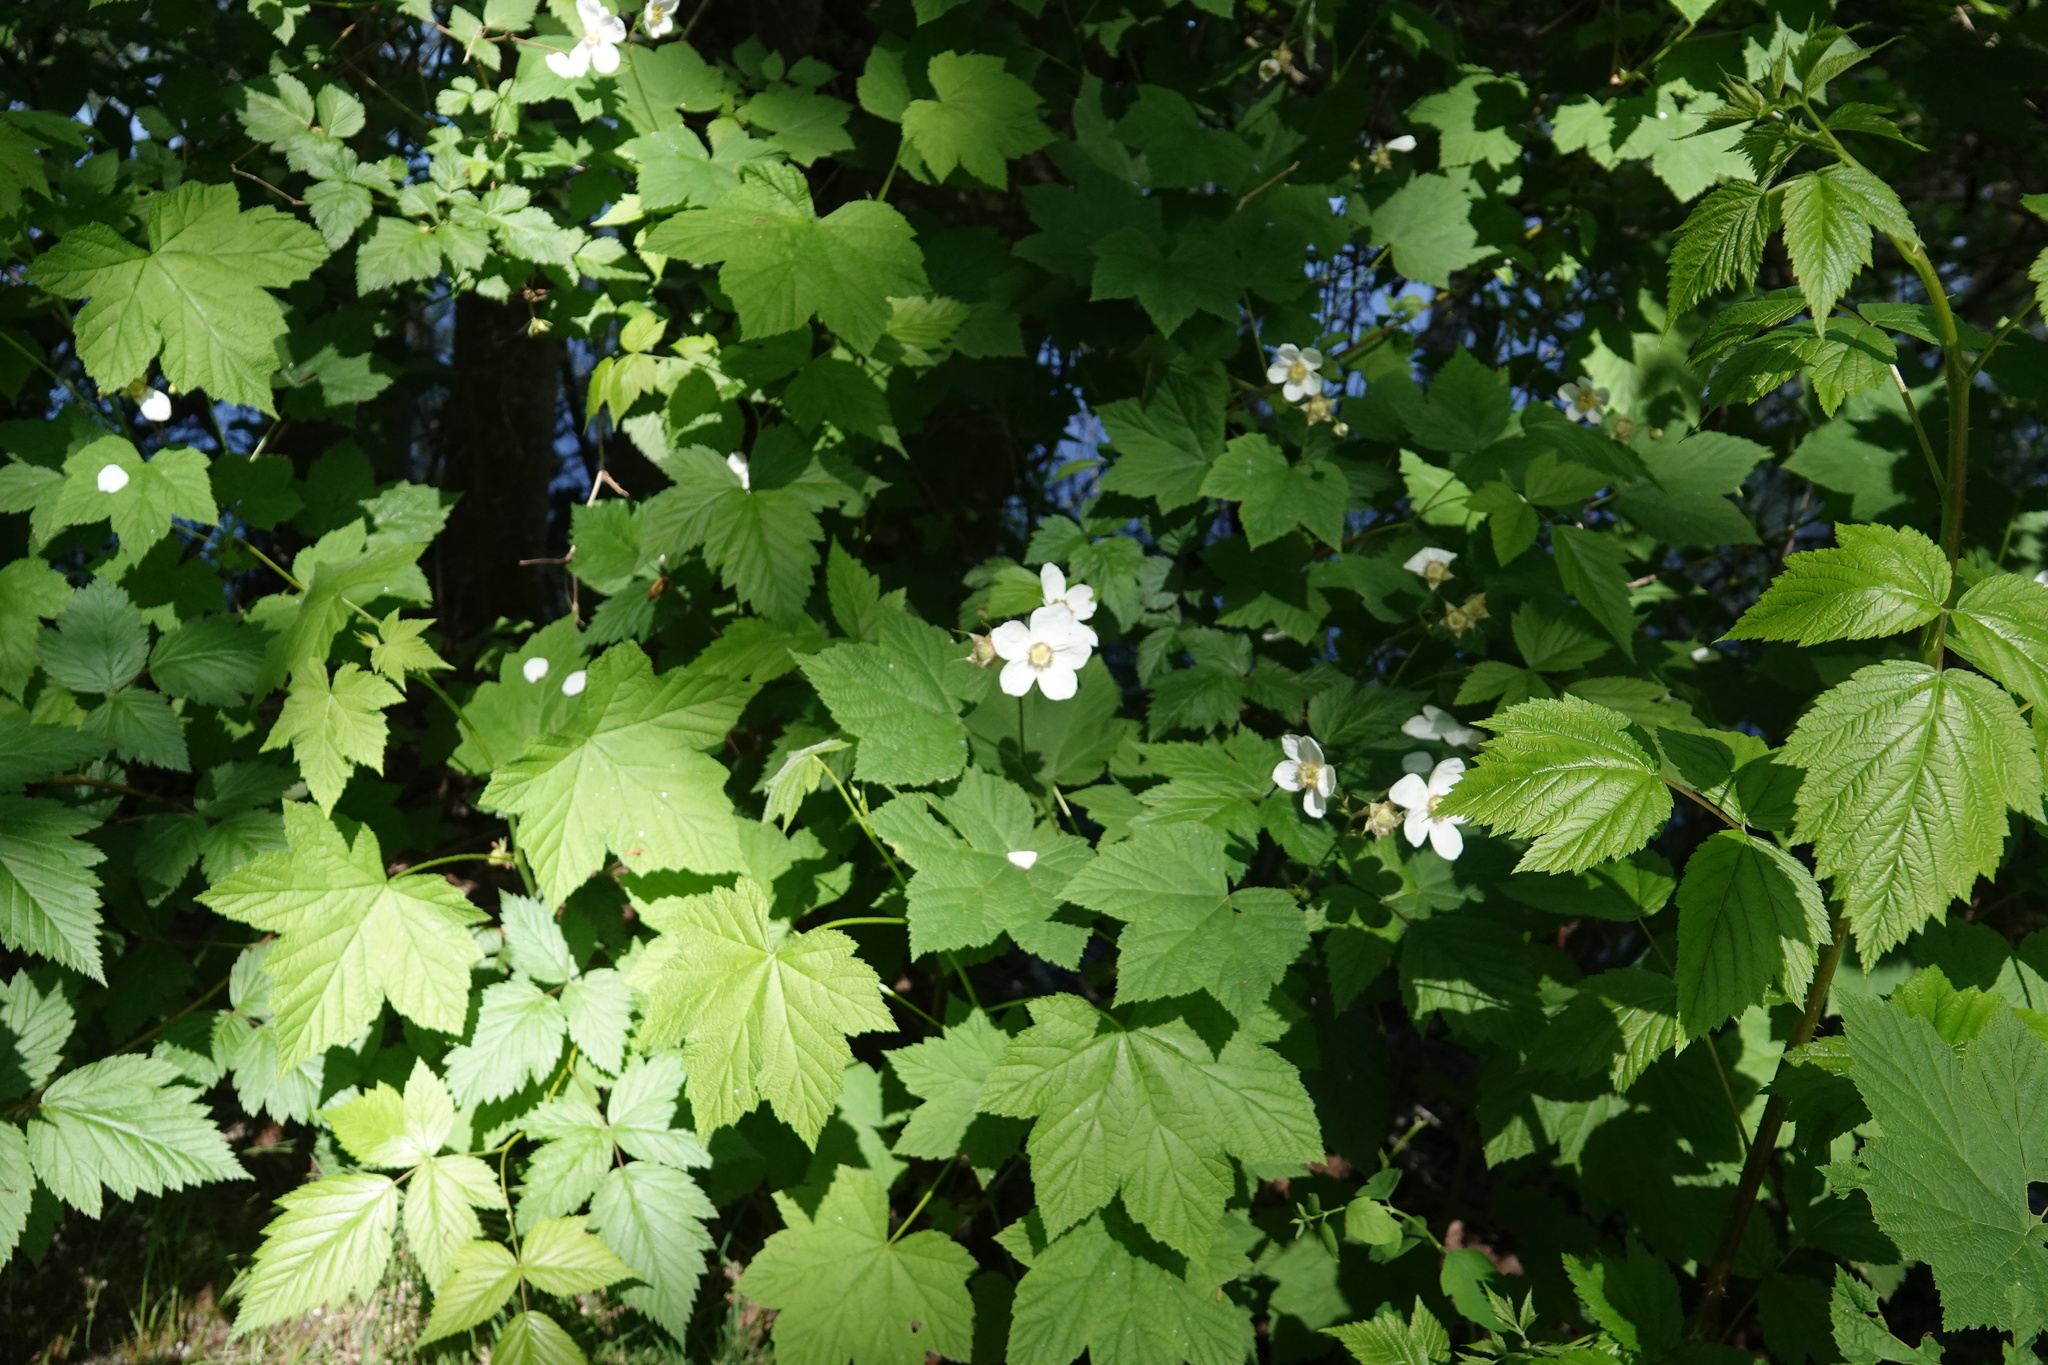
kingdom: Plantae
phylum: Tracheophyta
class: Magnoliopsida
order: Rosales
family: Rosaceae
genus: Rubus
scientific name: Rubus parviflorus
